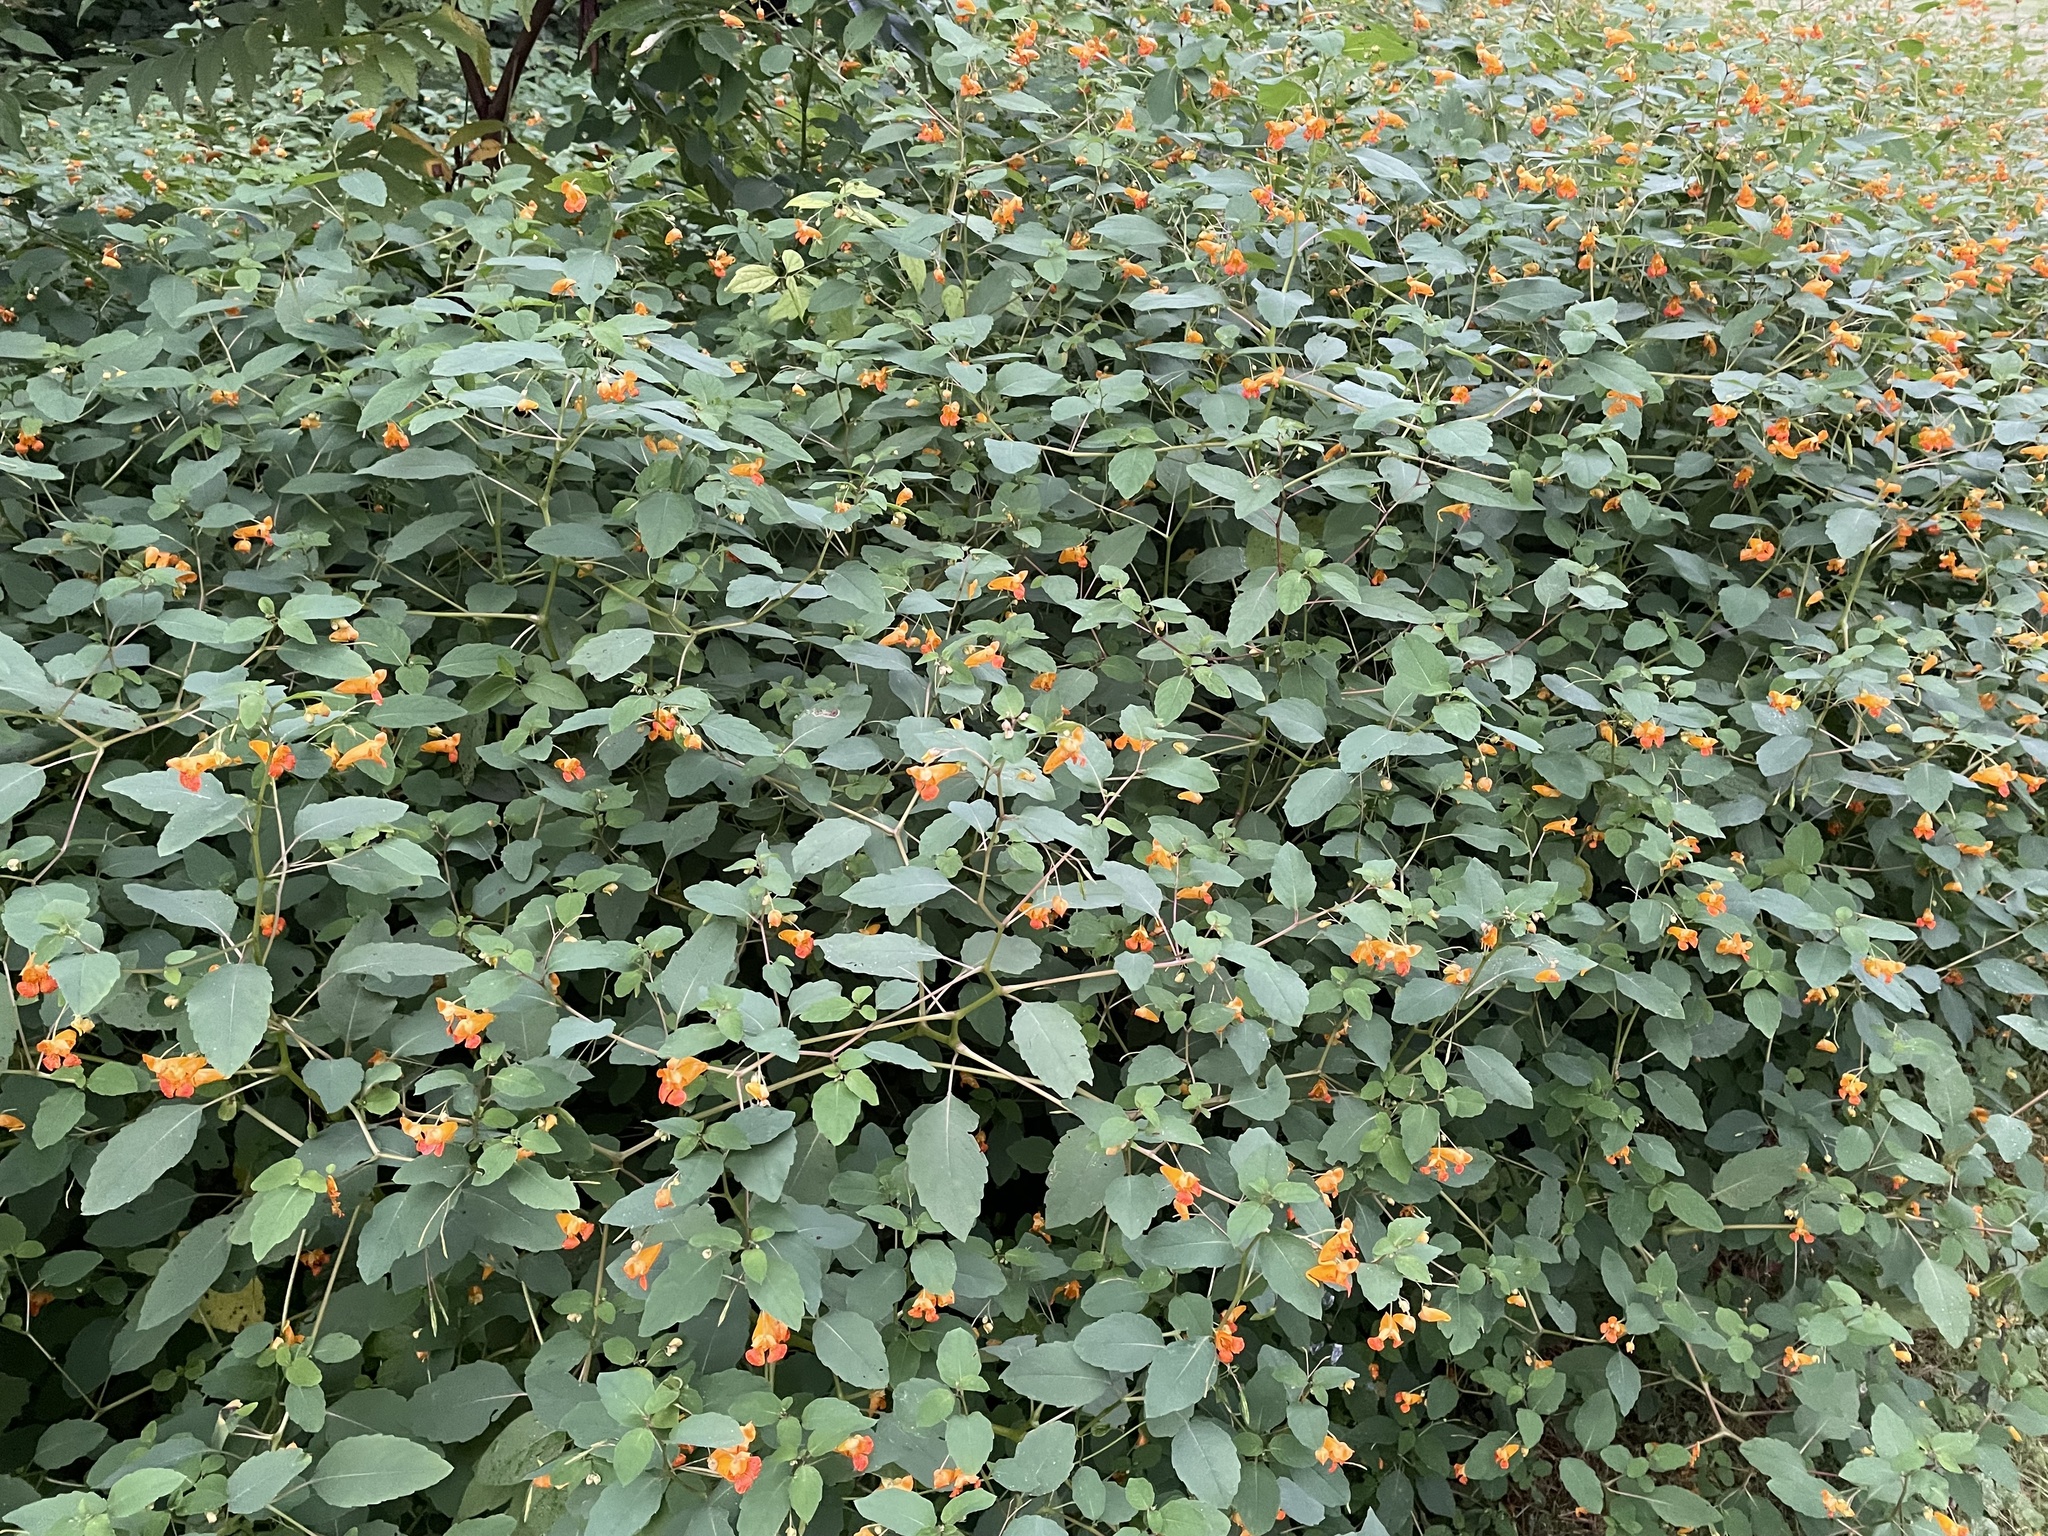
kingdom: Plantae
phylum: Tracheophyta
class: Magnoliopsida
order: Ericales
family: Balsaminaceae
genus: Impatiens
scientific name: Impatiens capensis
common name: Orange balsam
